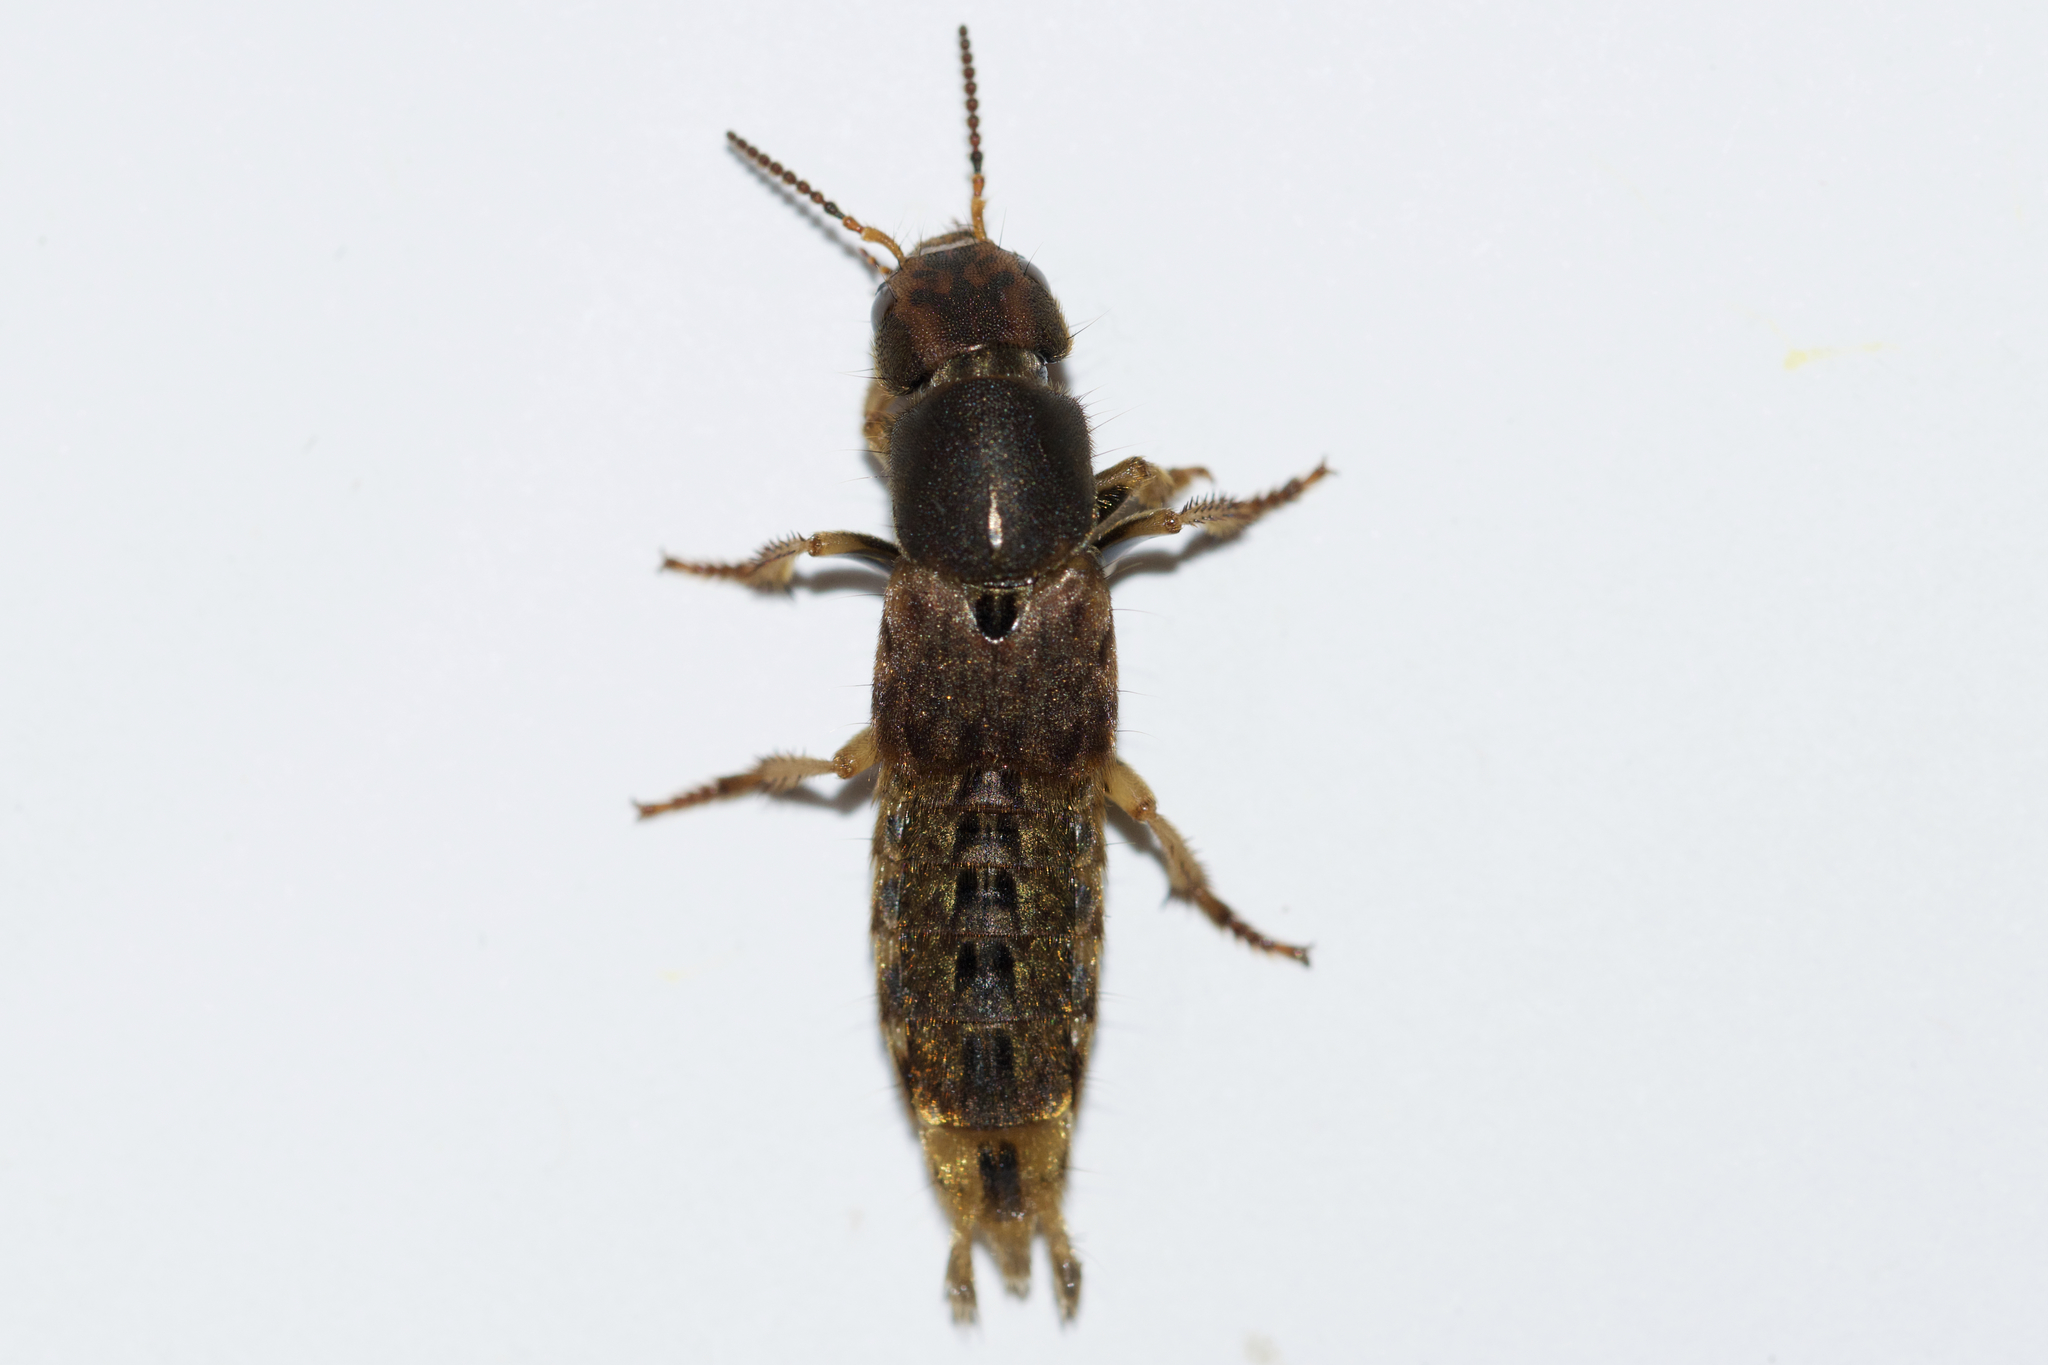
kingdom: Animalia
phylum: Arthropoda
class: Insecta
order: Coleoptera
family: Staphylinidae
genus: Platydracus
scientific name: Platydracus maculosus
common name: Brown rove beetle
